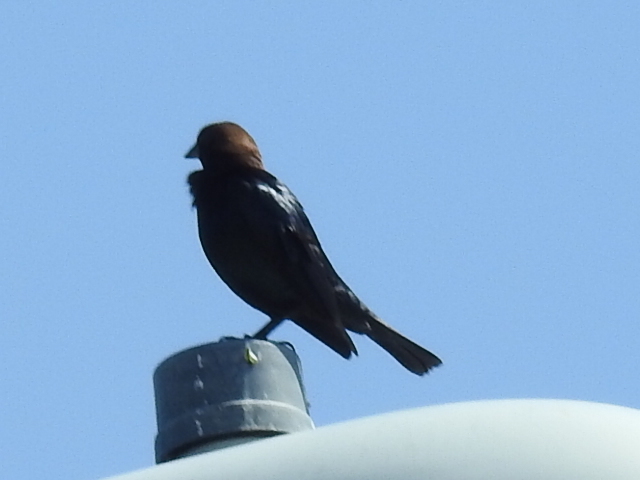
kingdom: Animalia
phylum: Chordata
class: Aves
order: Passeriformes
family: Icteridae
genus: Molothrus
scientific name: Molothrus ater
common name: Brown-headed cowbird
